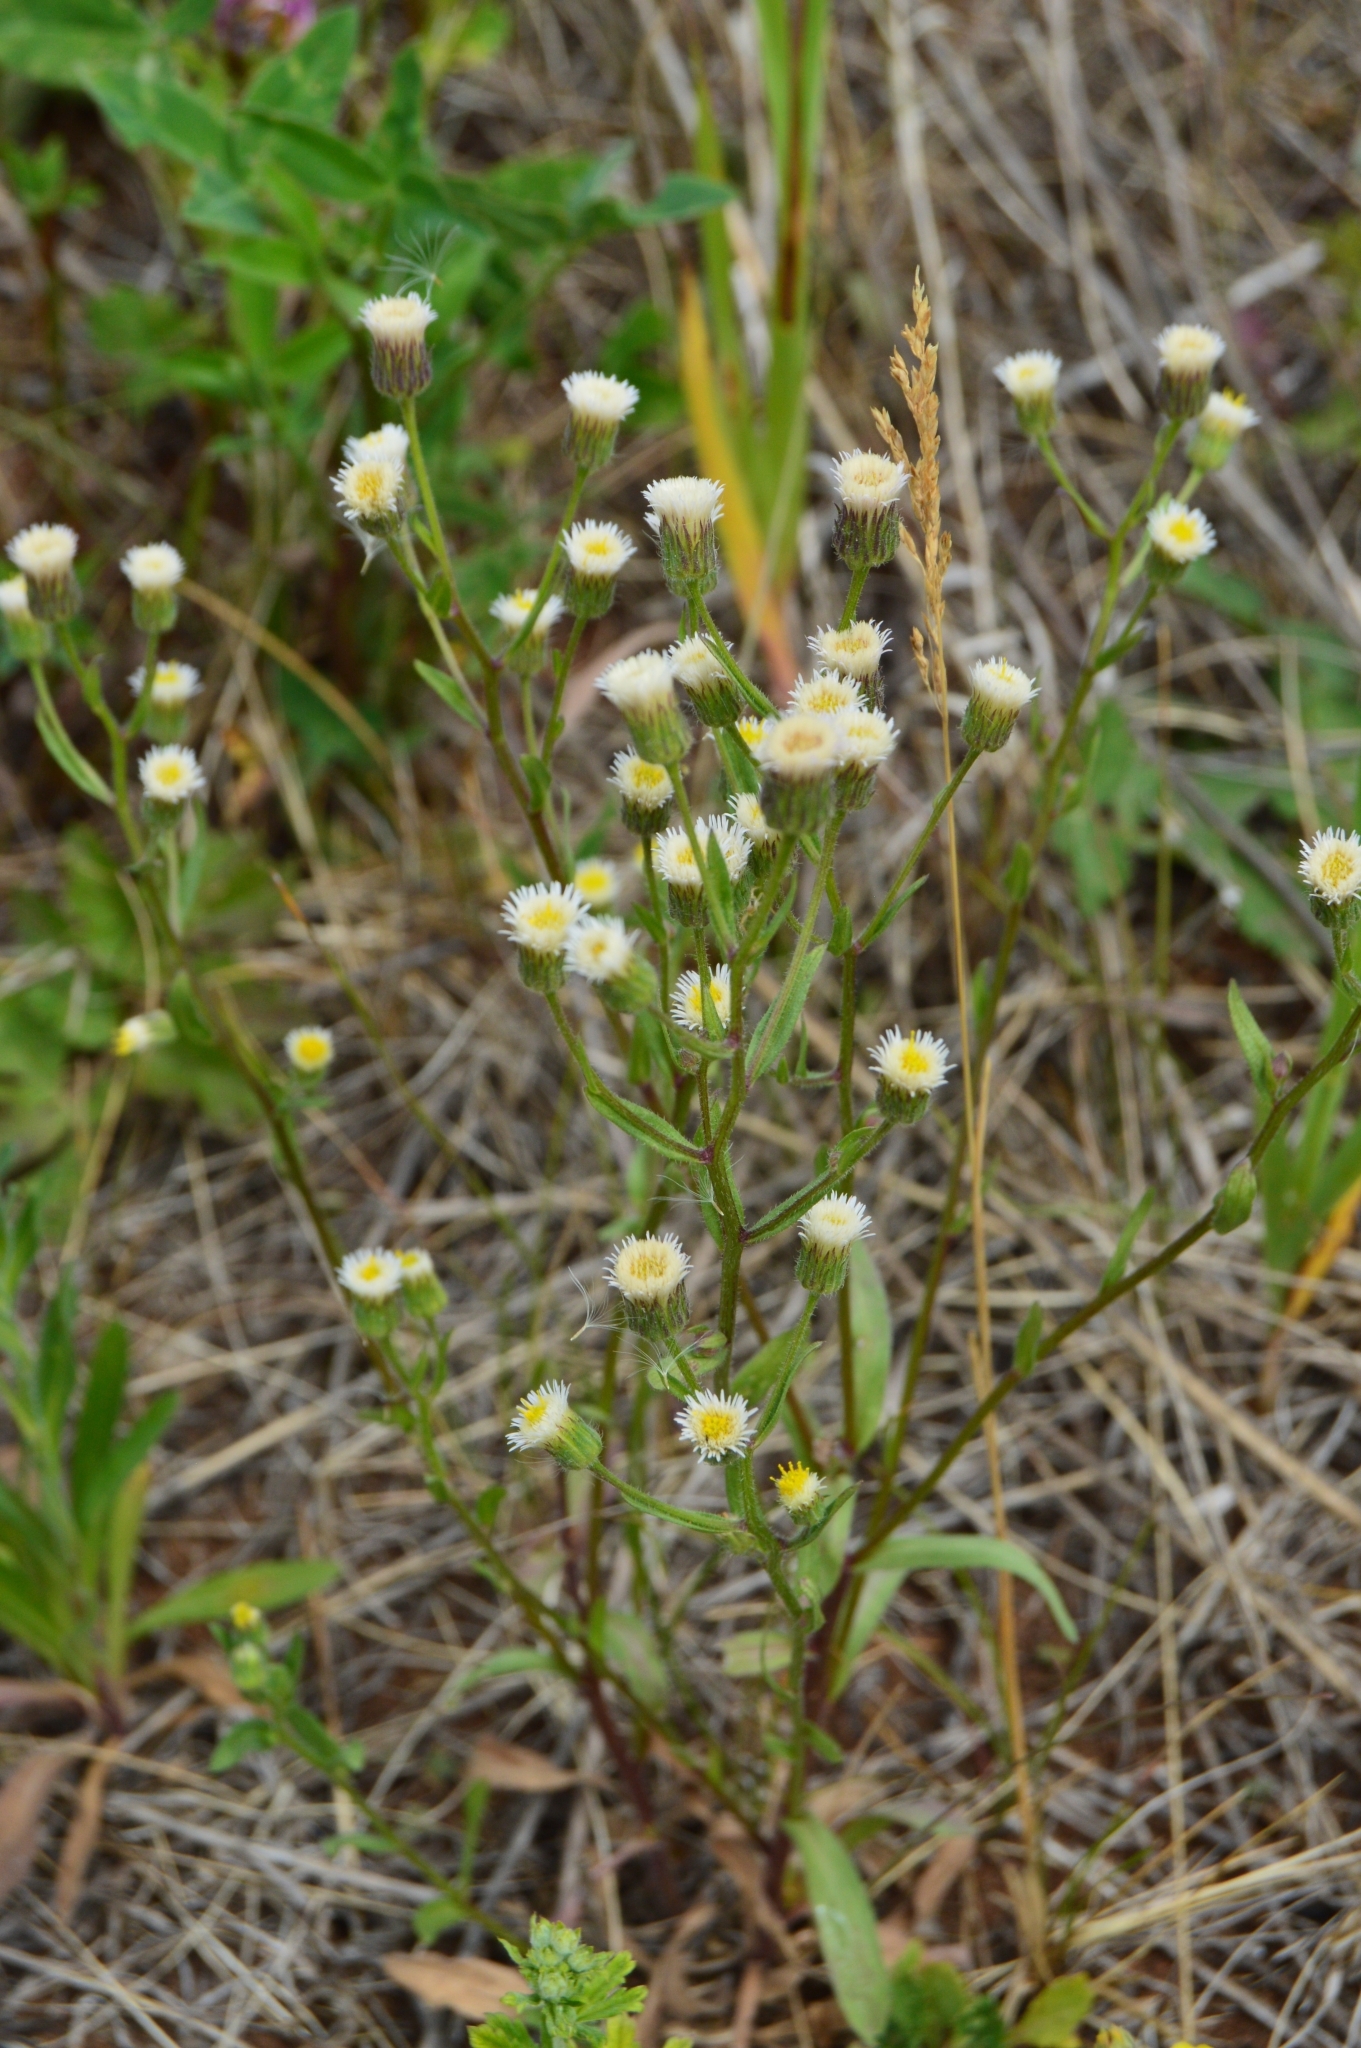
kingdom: Plantae
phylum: Tracheophyta
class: Magnoliopsida
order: Asterales
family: Asteraceae
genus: Erigeron
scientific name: Erigeron acris
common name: Blue fleabane
